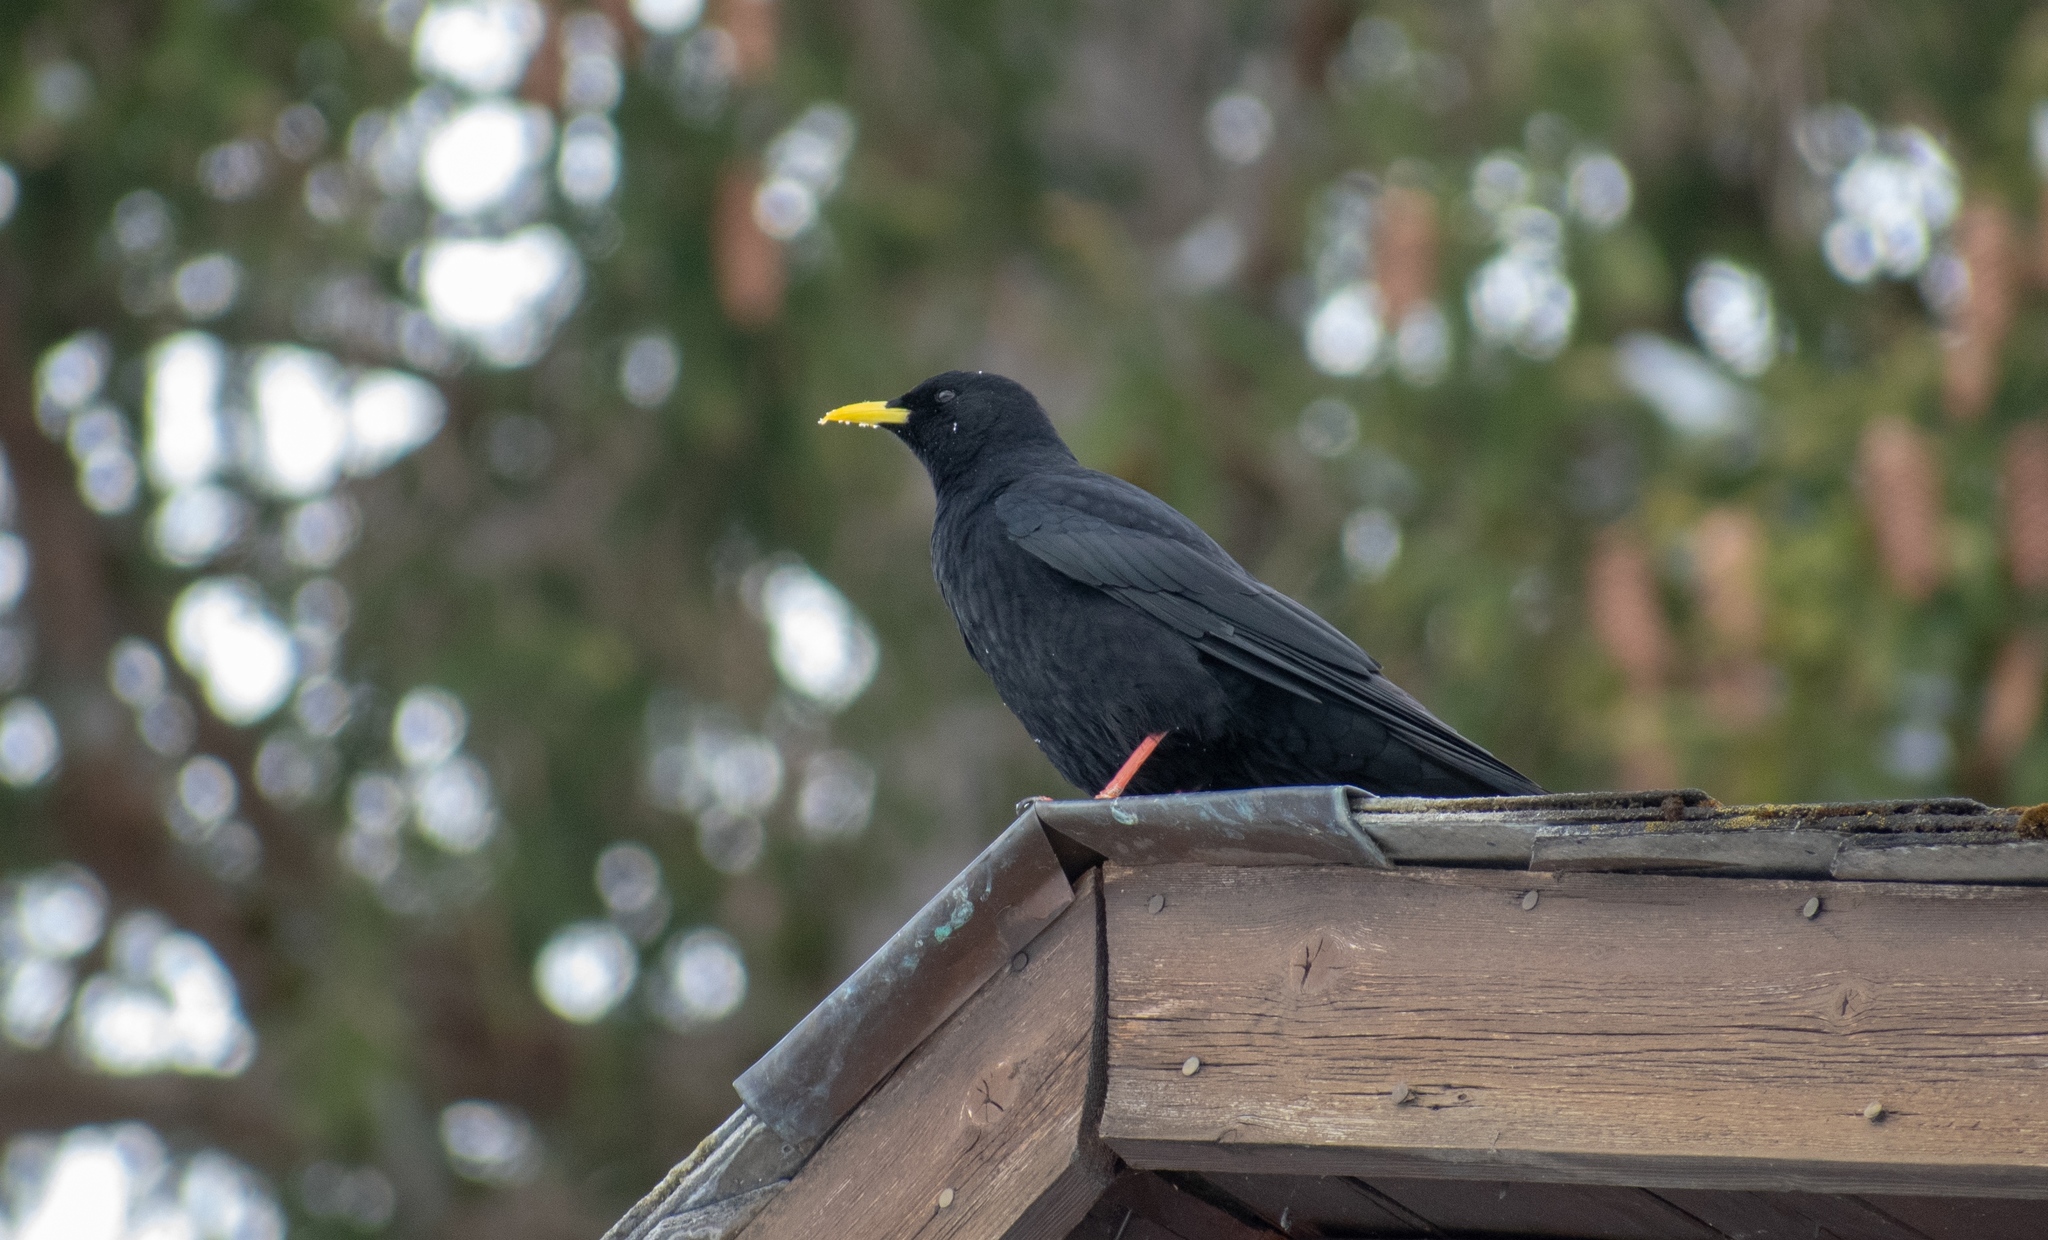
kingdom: Animalia
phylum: Chordata
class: Aves
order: Passeriformes
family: Corvidae
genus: Pyrrhocorax
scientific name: Pyrrhocorax graculus
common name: Alpine chough
